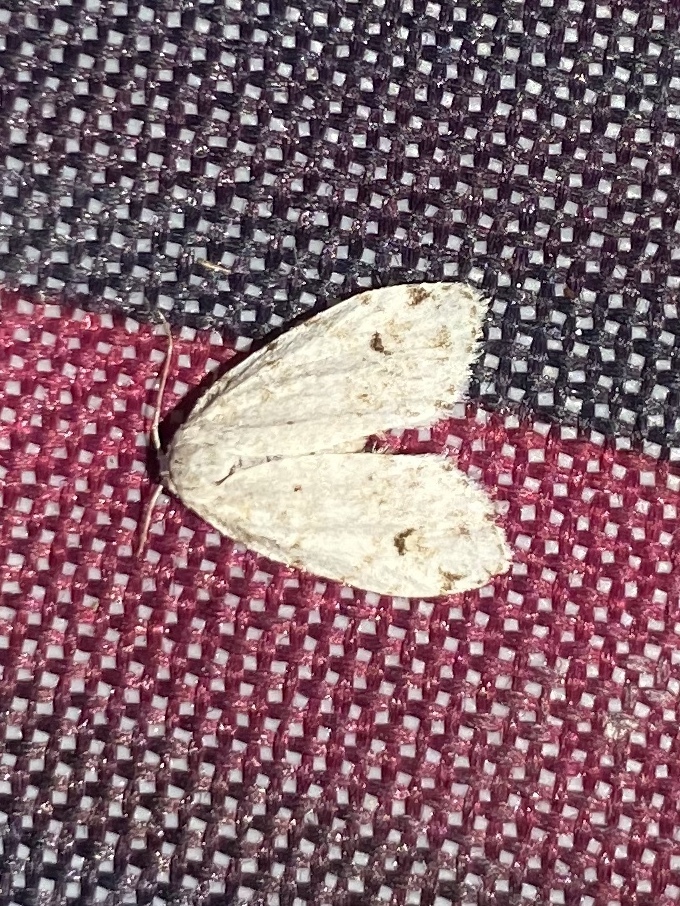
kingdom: Animalia
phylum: Arthropoda
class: Insecta
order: Lepidoptera
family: Erebidae
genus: Clemensia
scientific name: Clemensia albata
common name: Little white lichen moth
